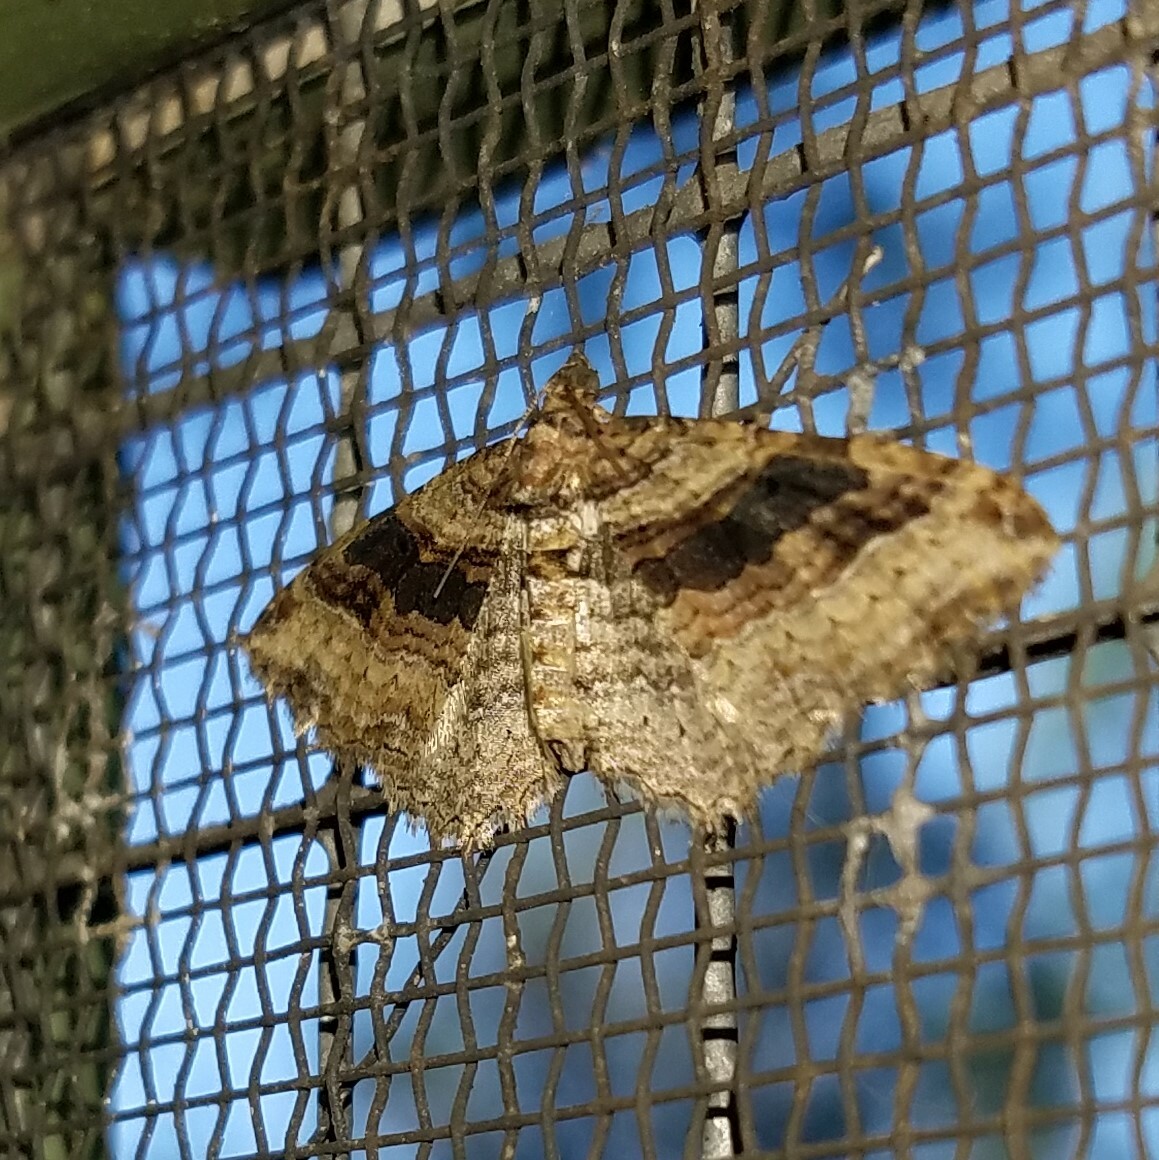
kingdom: Animalia
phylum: Arthropoda
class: Insecta
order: Lepidoptera
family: Geometridae
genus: Costaconvexa
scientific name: Costaconvexa centrostrigaria
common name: Bent-line carpet
